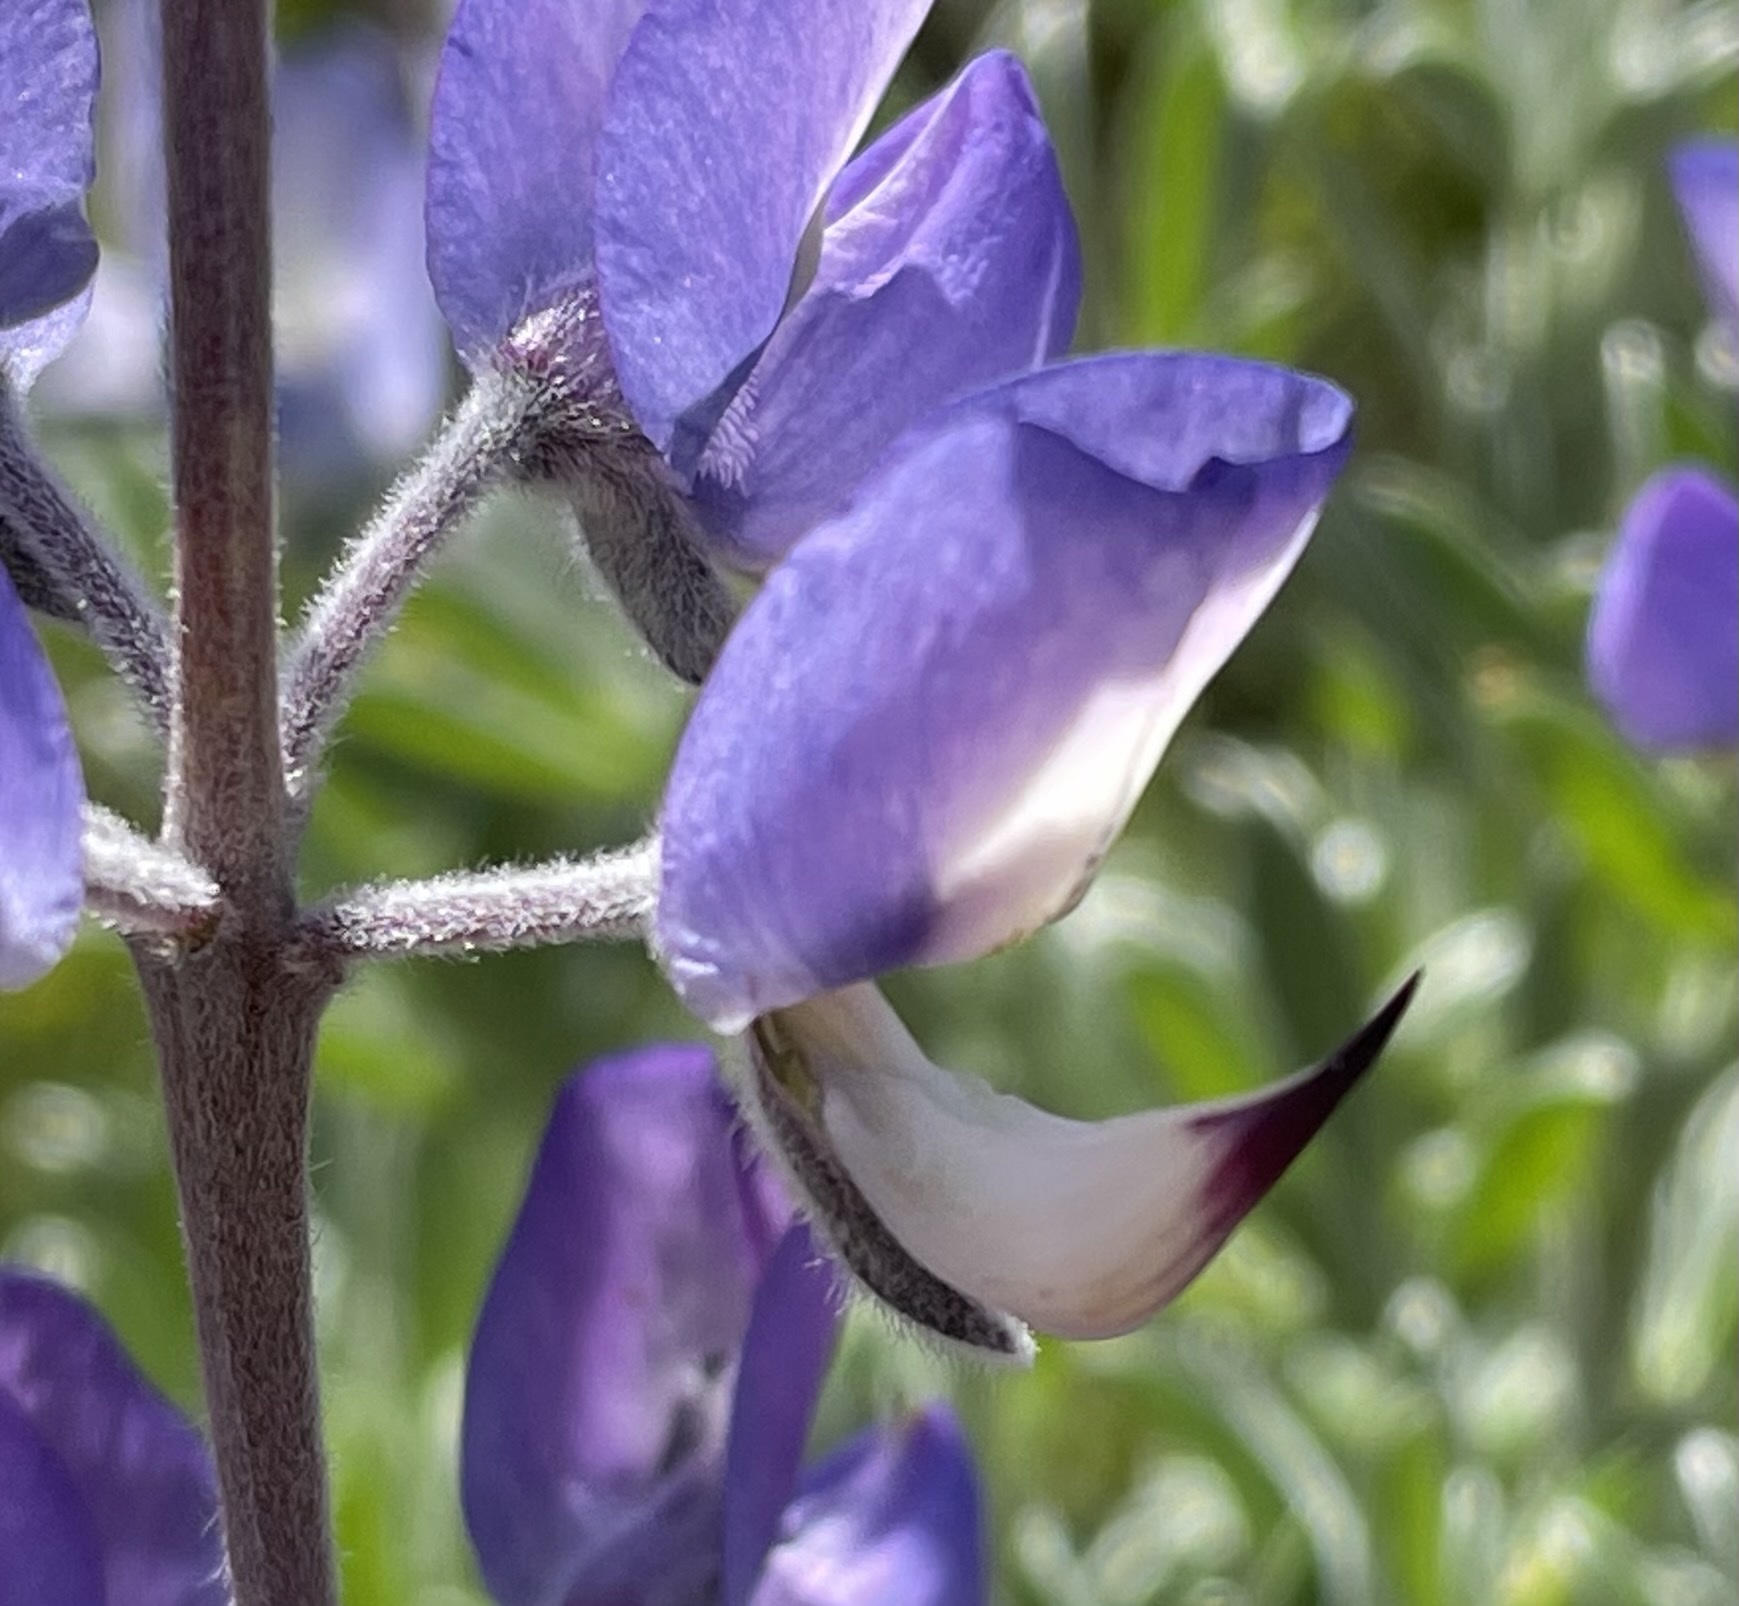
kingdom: Plantae
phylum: Tracheophyta
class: Magnoliopsida
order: Fabales
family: Fabaceae
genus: Lupinus
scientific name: Lupinus chamissonis
